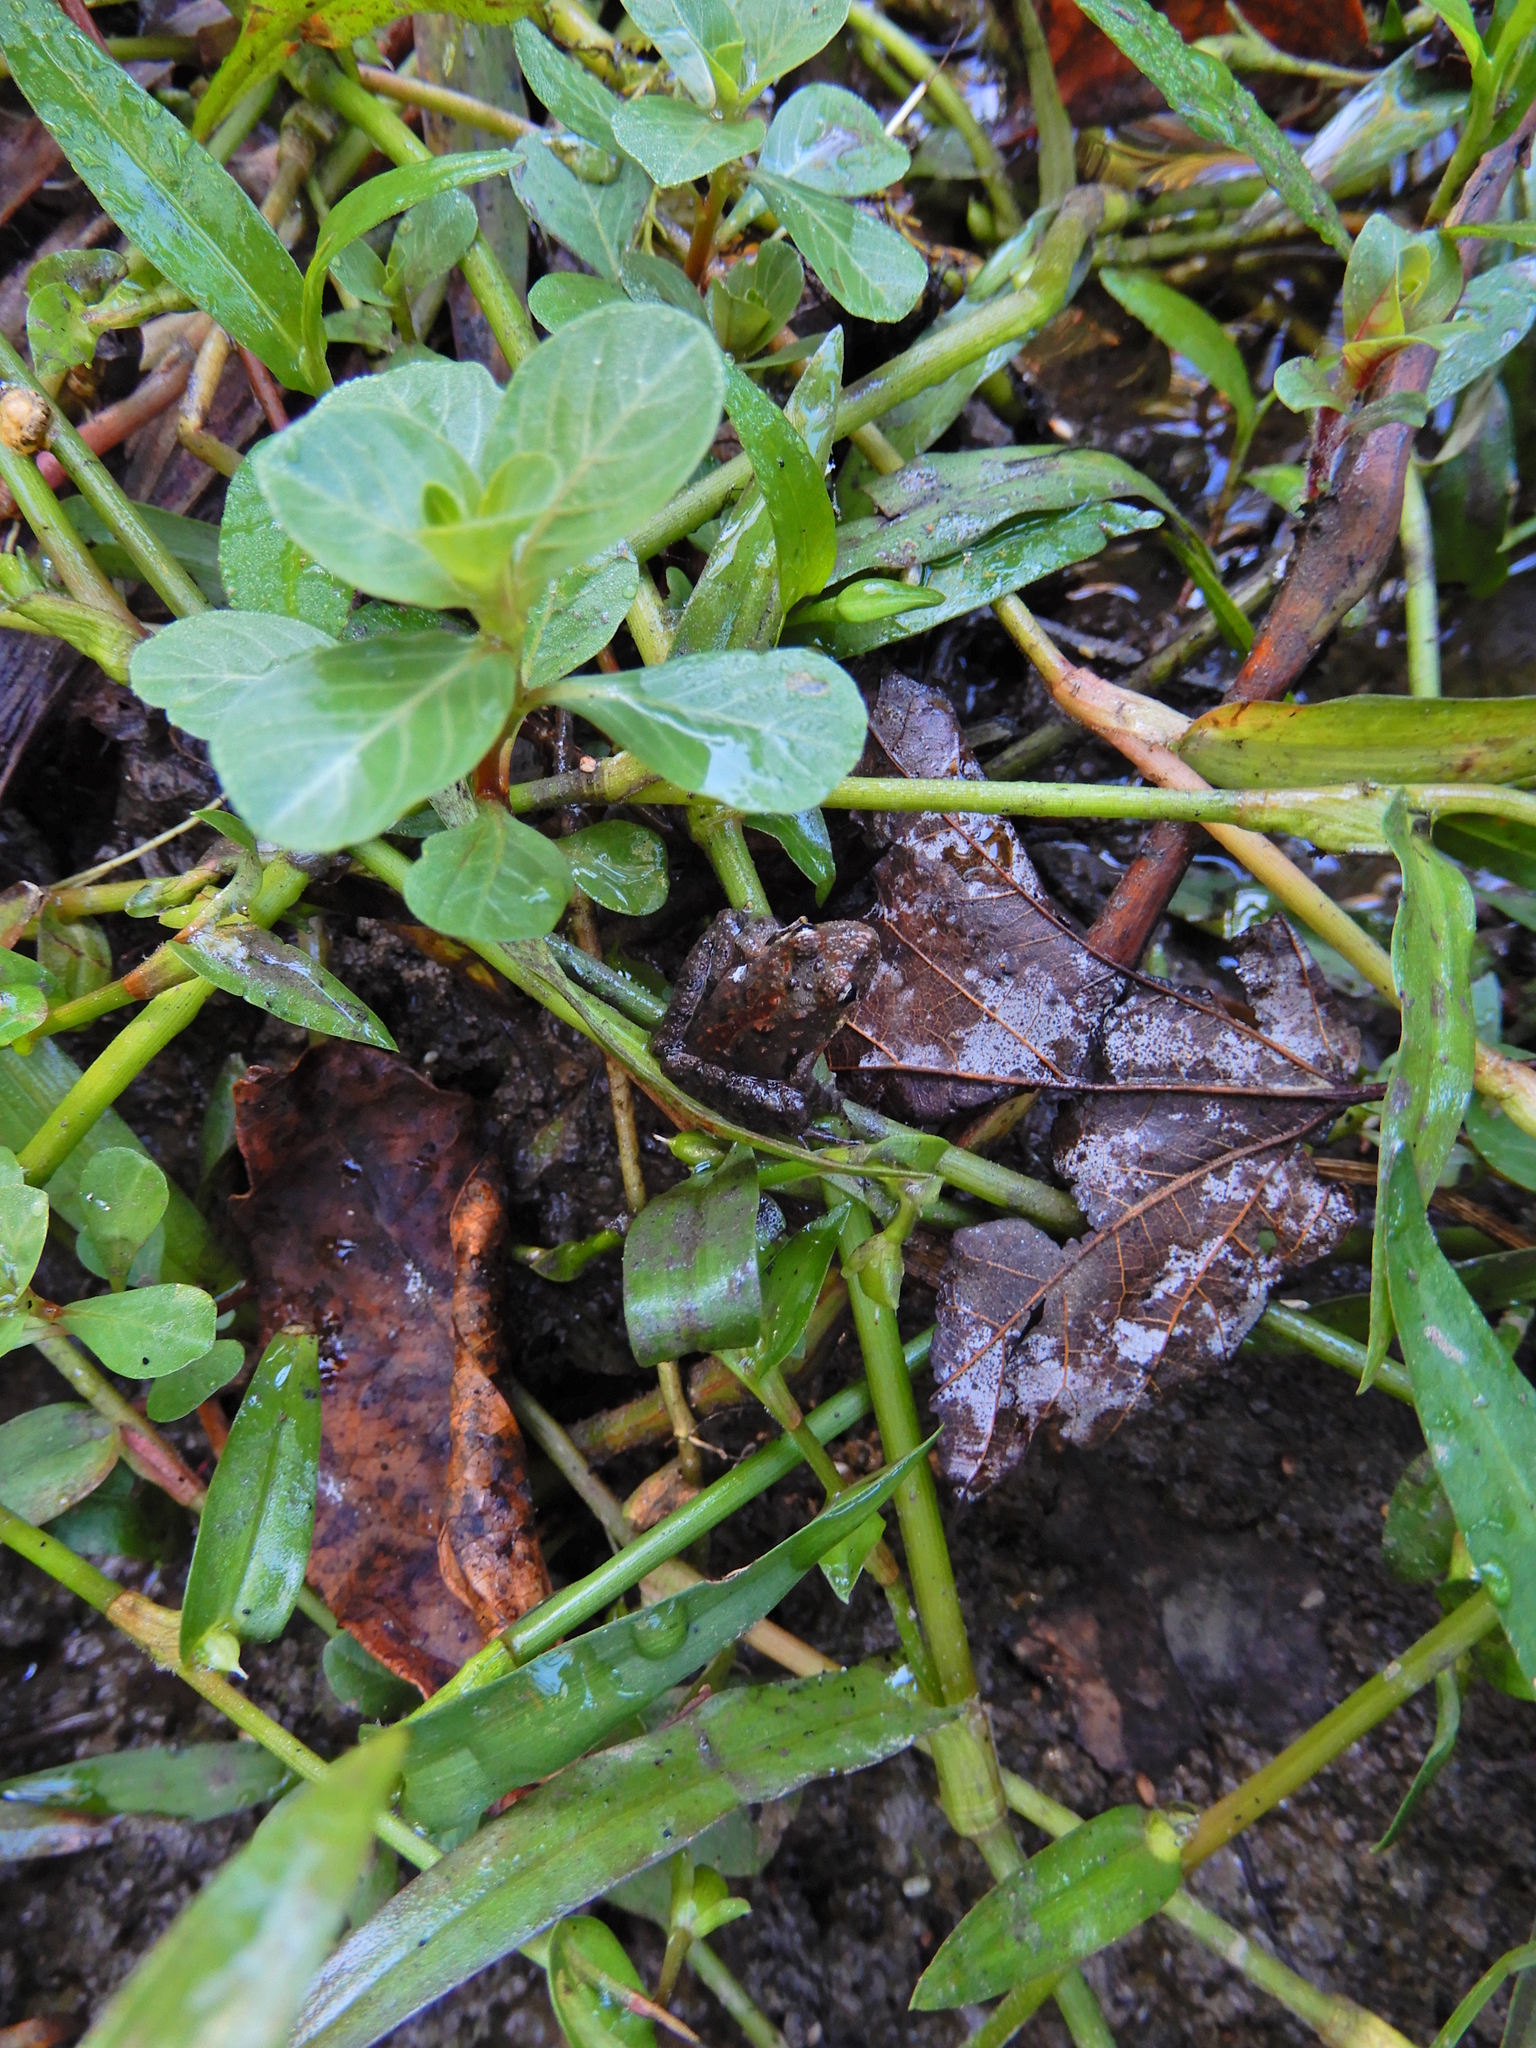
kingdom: Animalia
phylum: Chordata
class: Amphibia
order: Anura
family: Hylidae
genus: Acris
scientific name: Acris crepitans
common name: Northern cricket frog
